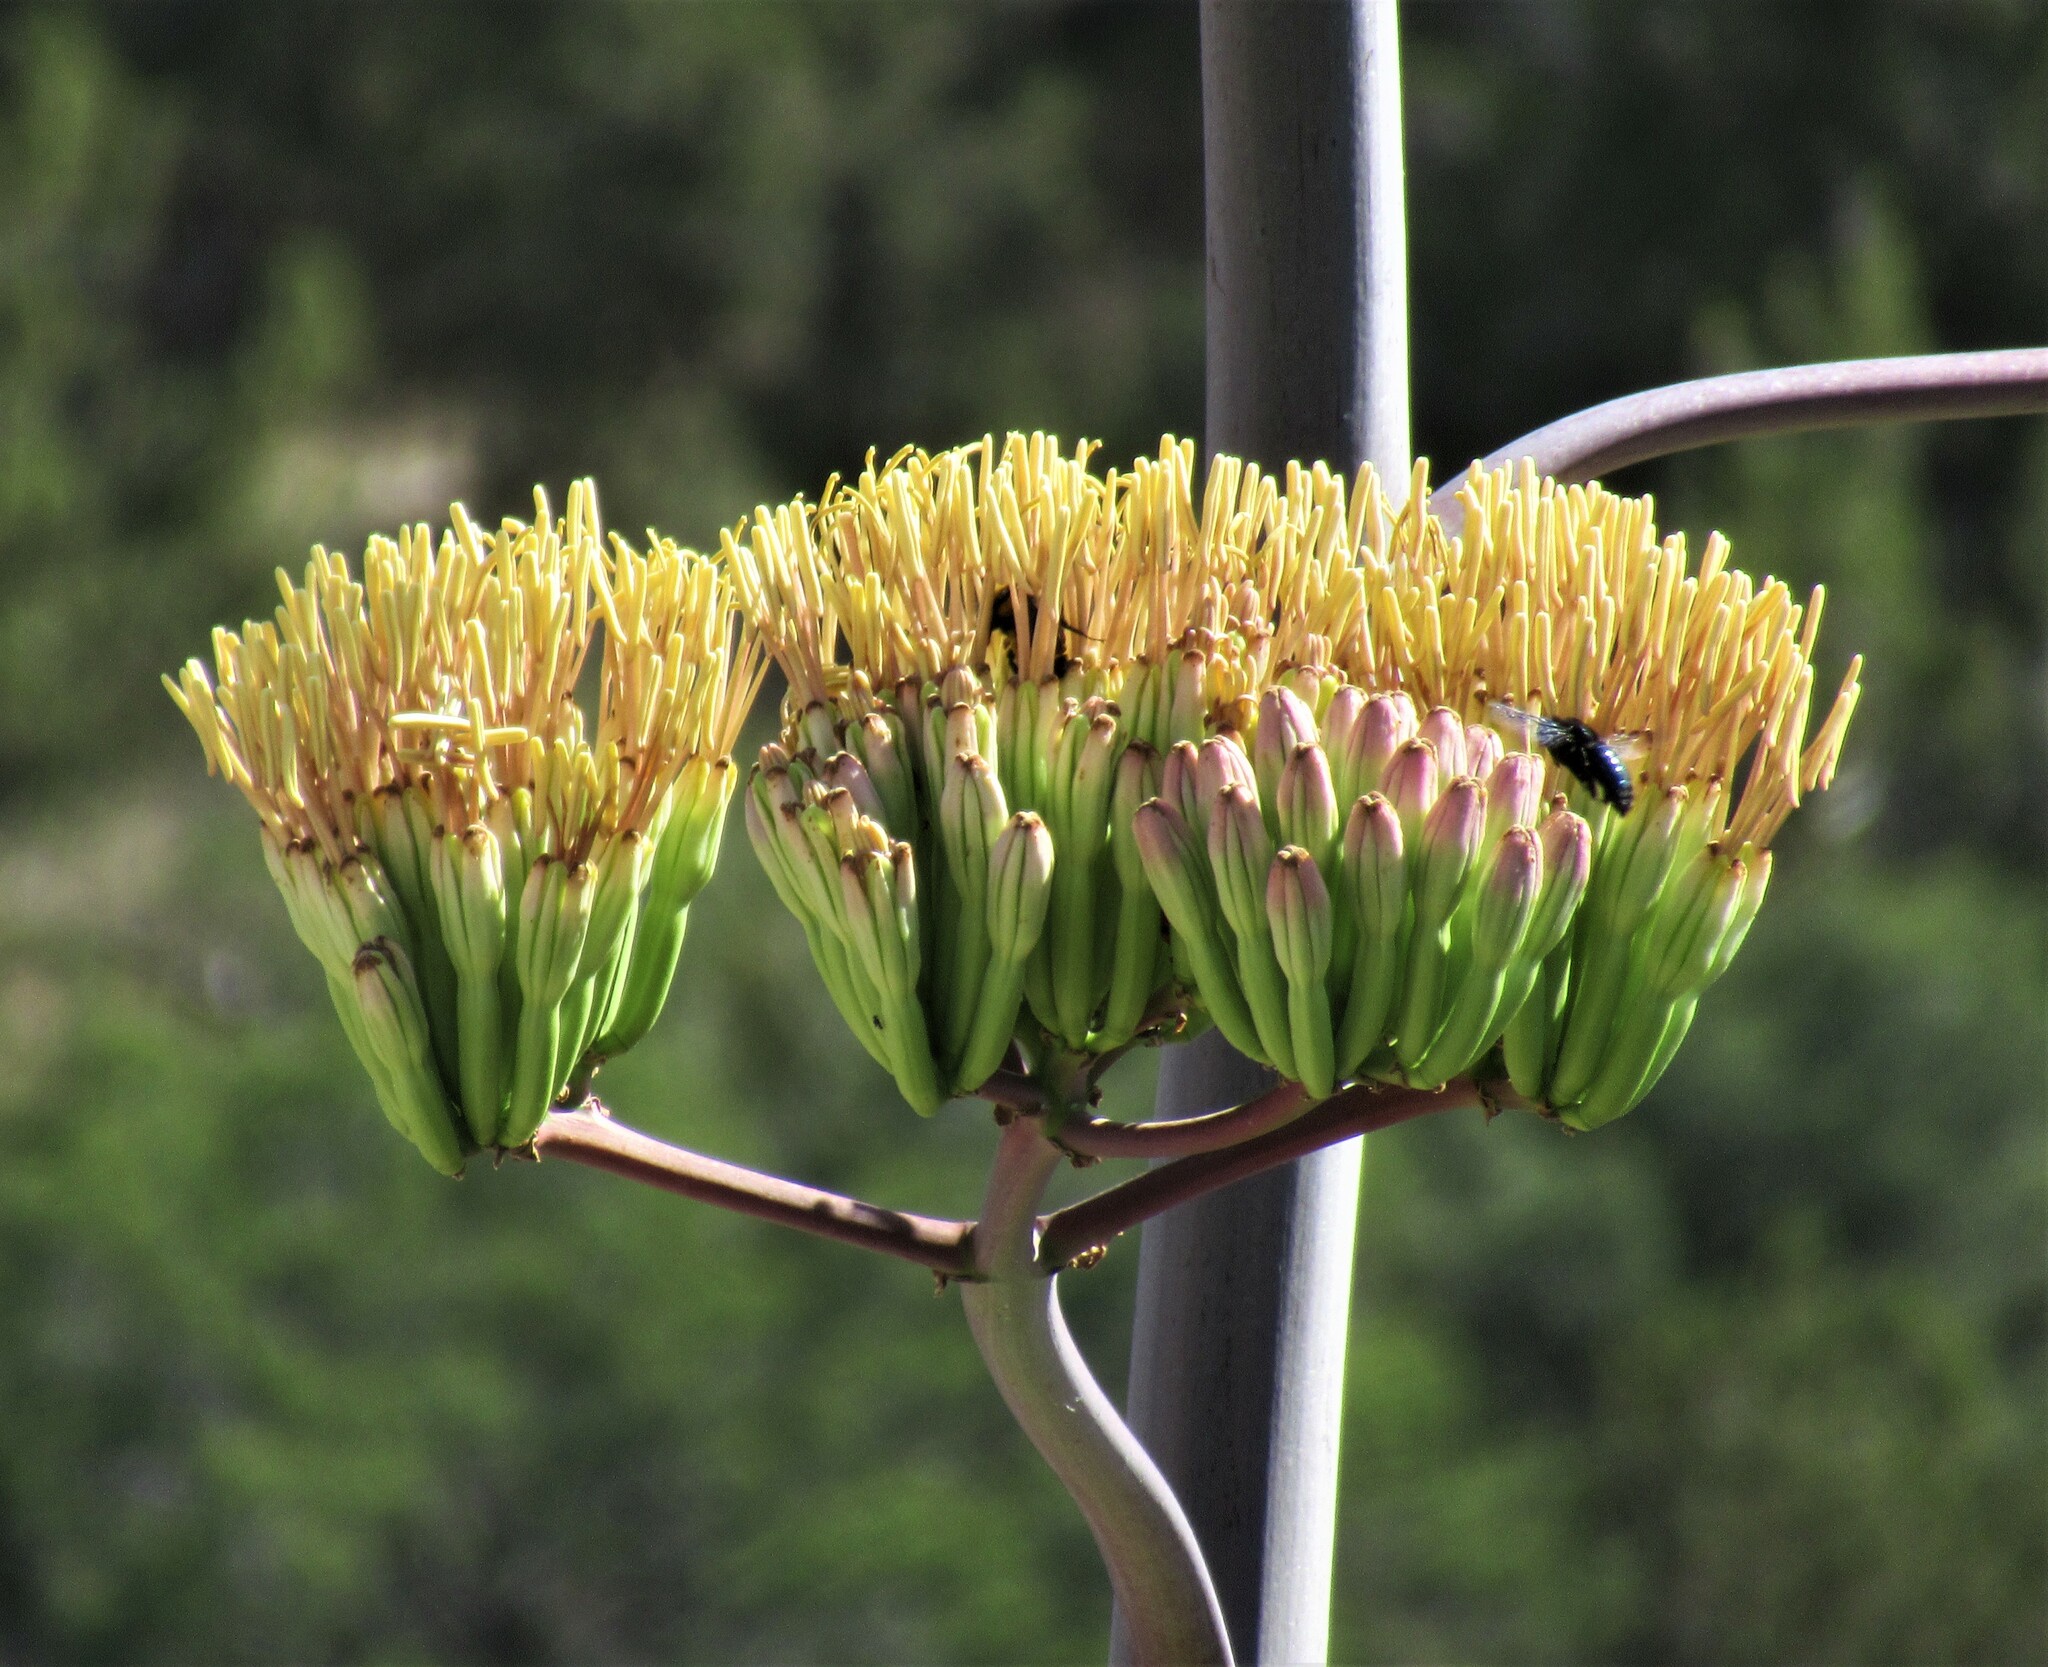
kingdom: Plantae
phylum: Tracheophyta
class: Liliopsida
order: Asparagales
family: Asparagaceae
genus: Agave
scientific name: Agave palmeri
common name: Palmer agave
